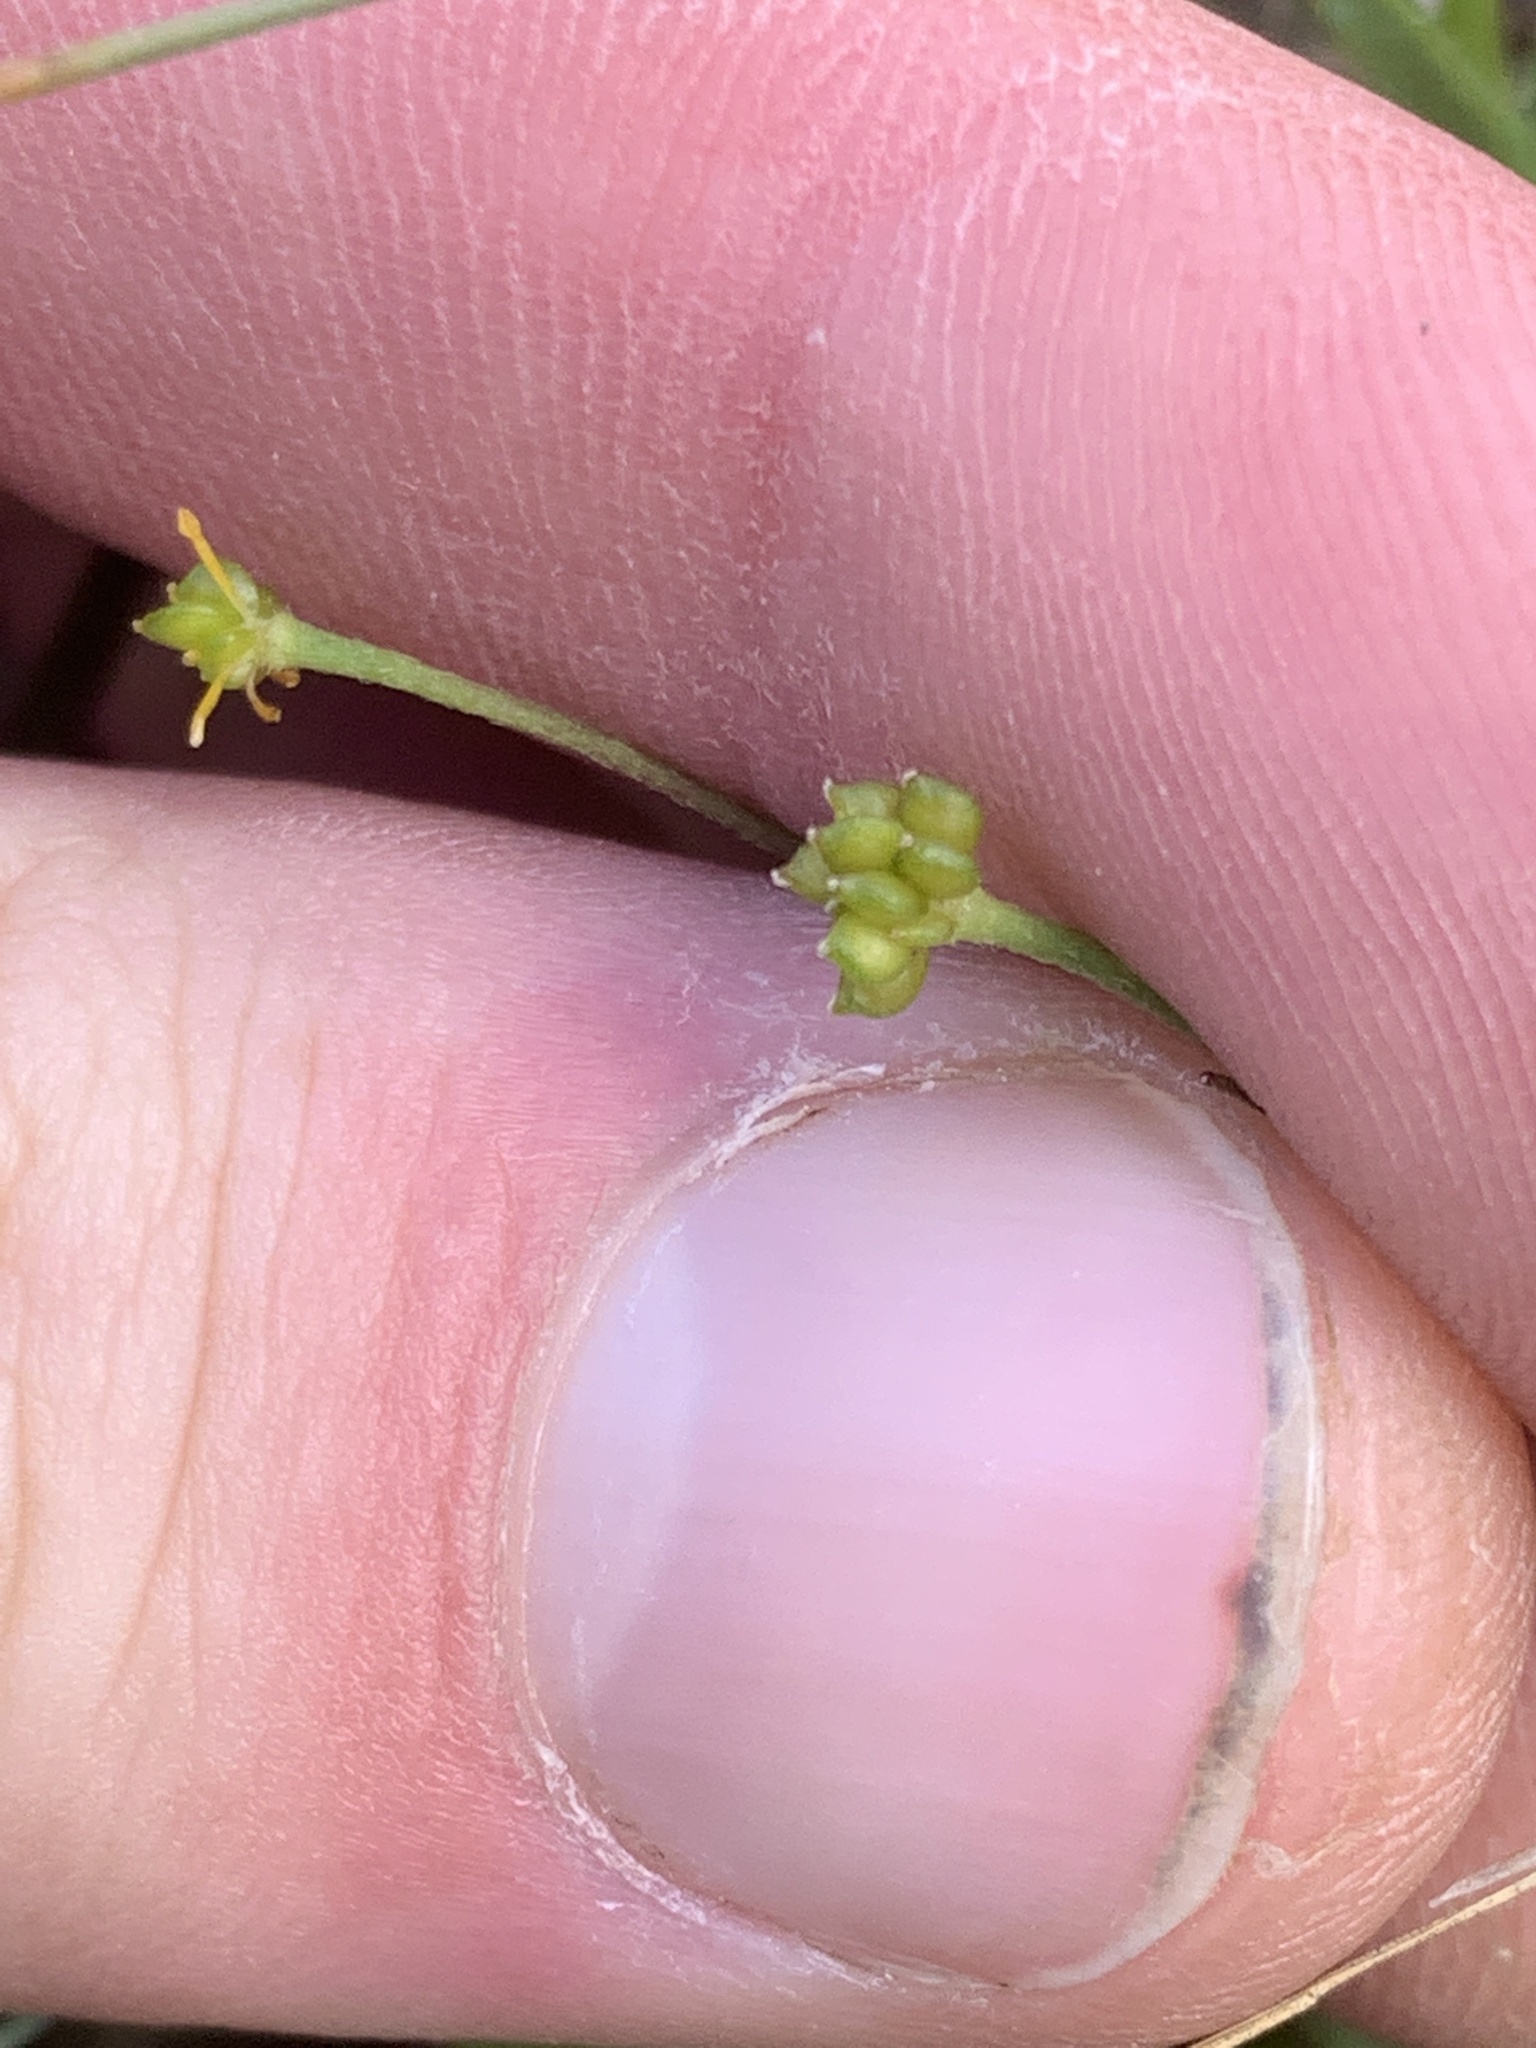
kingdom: Plantae
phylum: Tracheophyta
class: Magnoliopsida
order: Ranunculales
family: Ranunculaceae
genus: Ranunculus
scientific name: Ranunculus flammula
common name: Lesser spearwort
